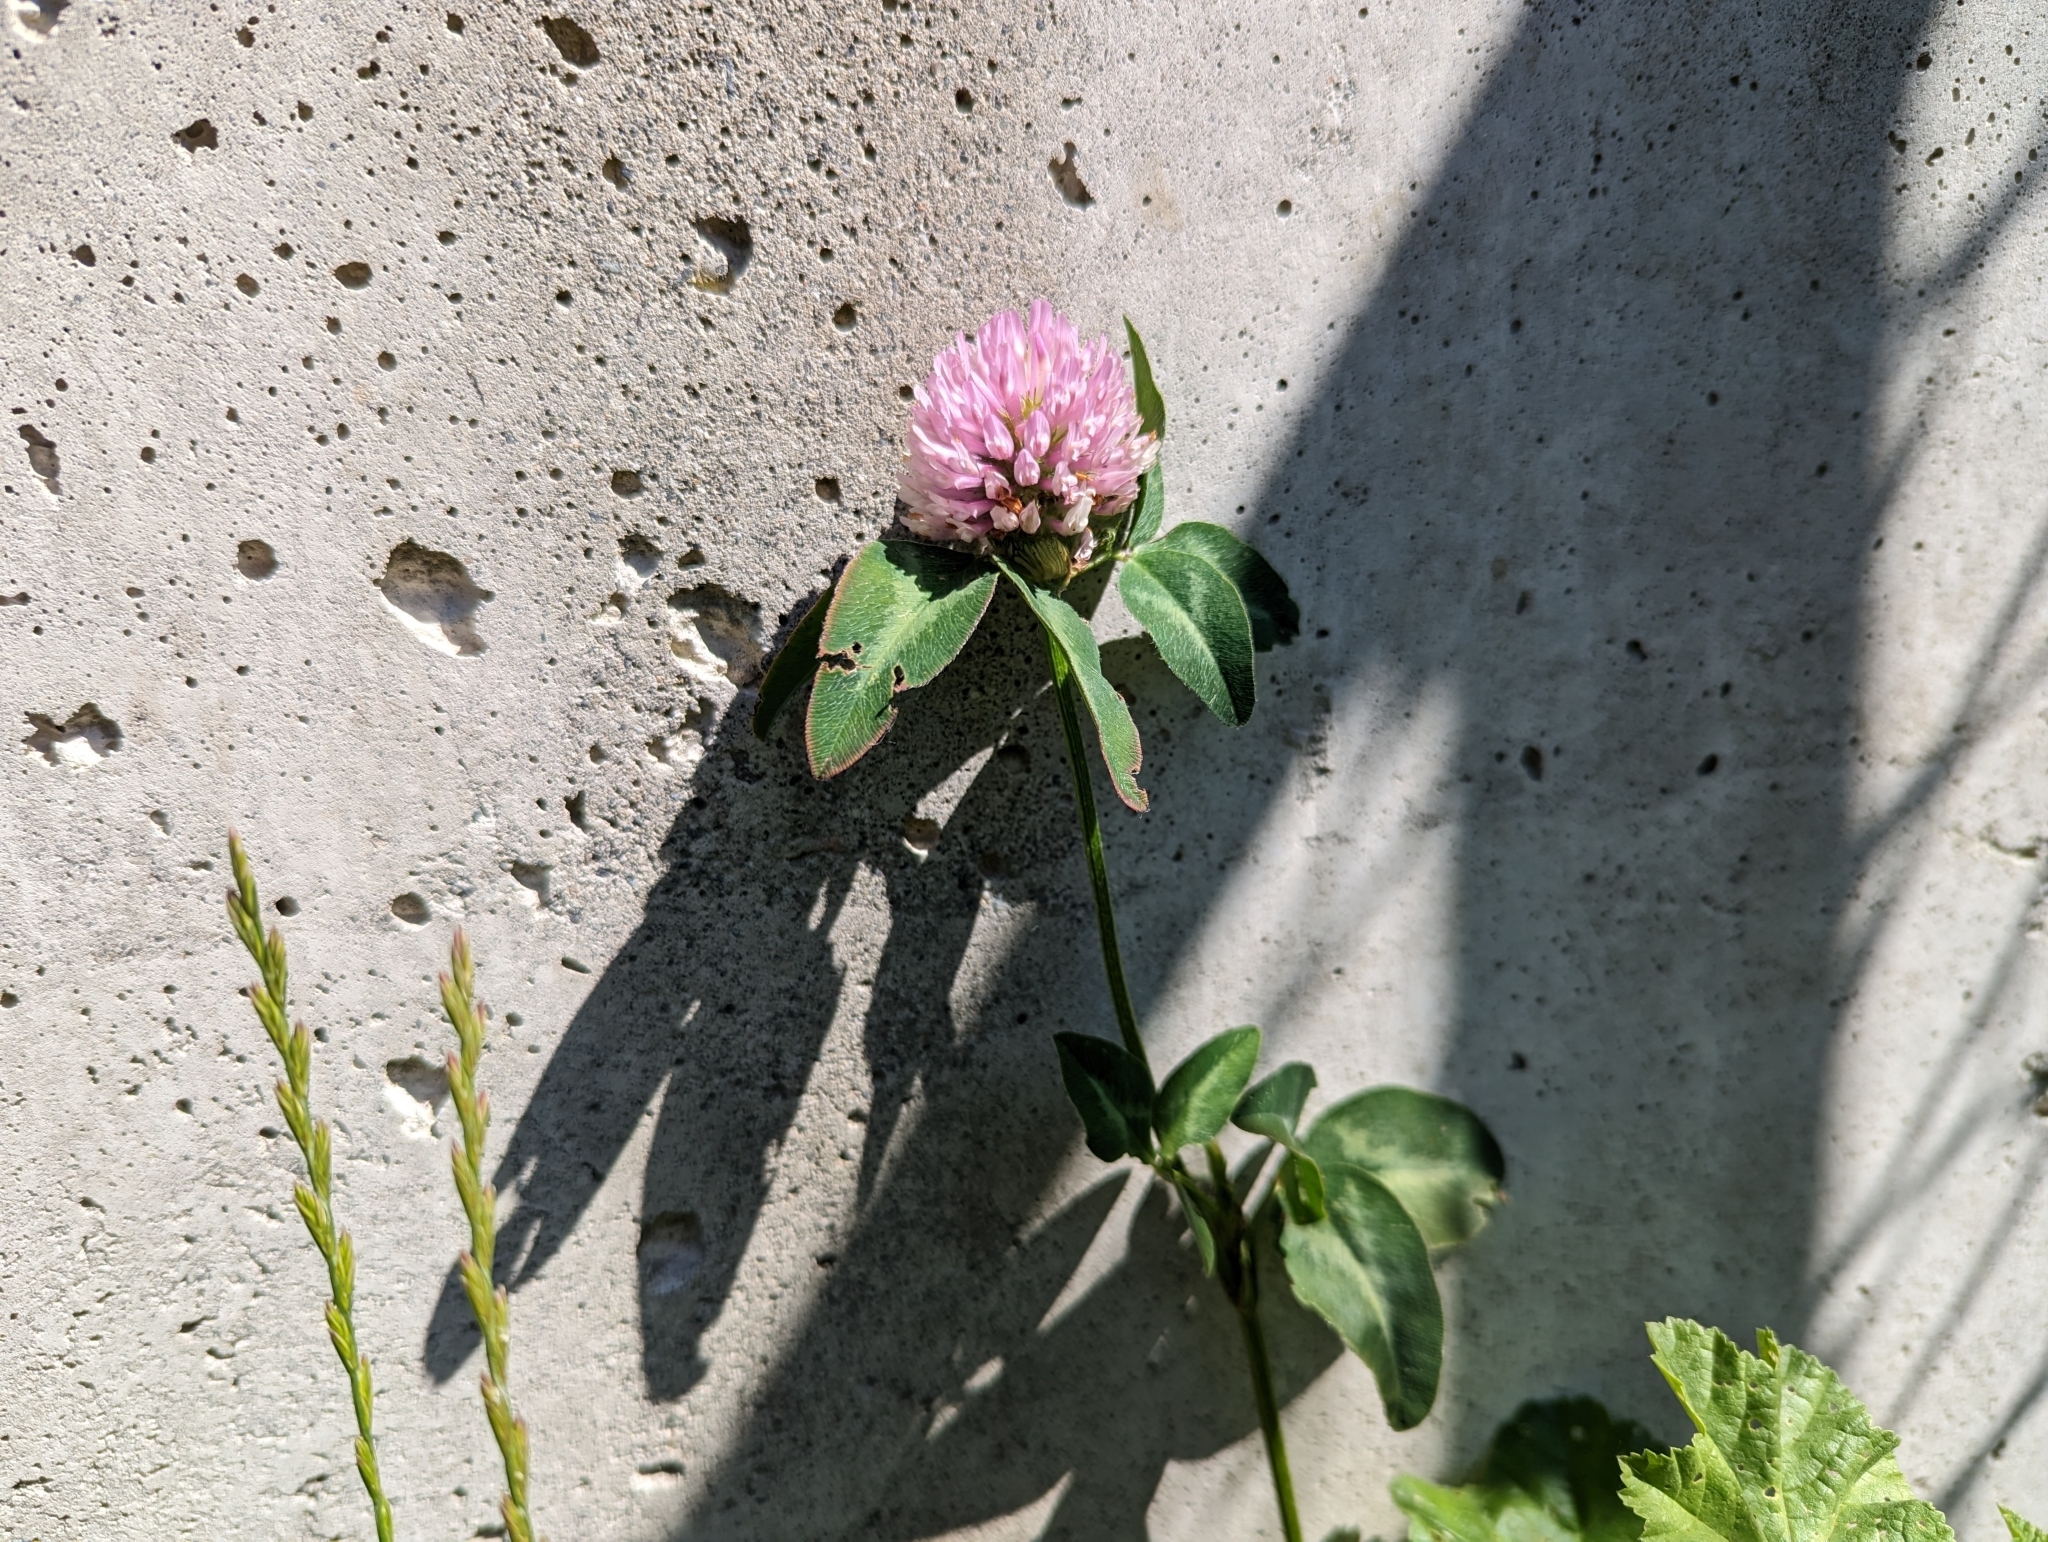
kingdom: Plantae
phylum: Tracheophyta
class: Magnoliopsida
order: Fabales
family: Fabaceae
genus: Trifolium
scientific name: Trifolium pratense
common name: Red clover
